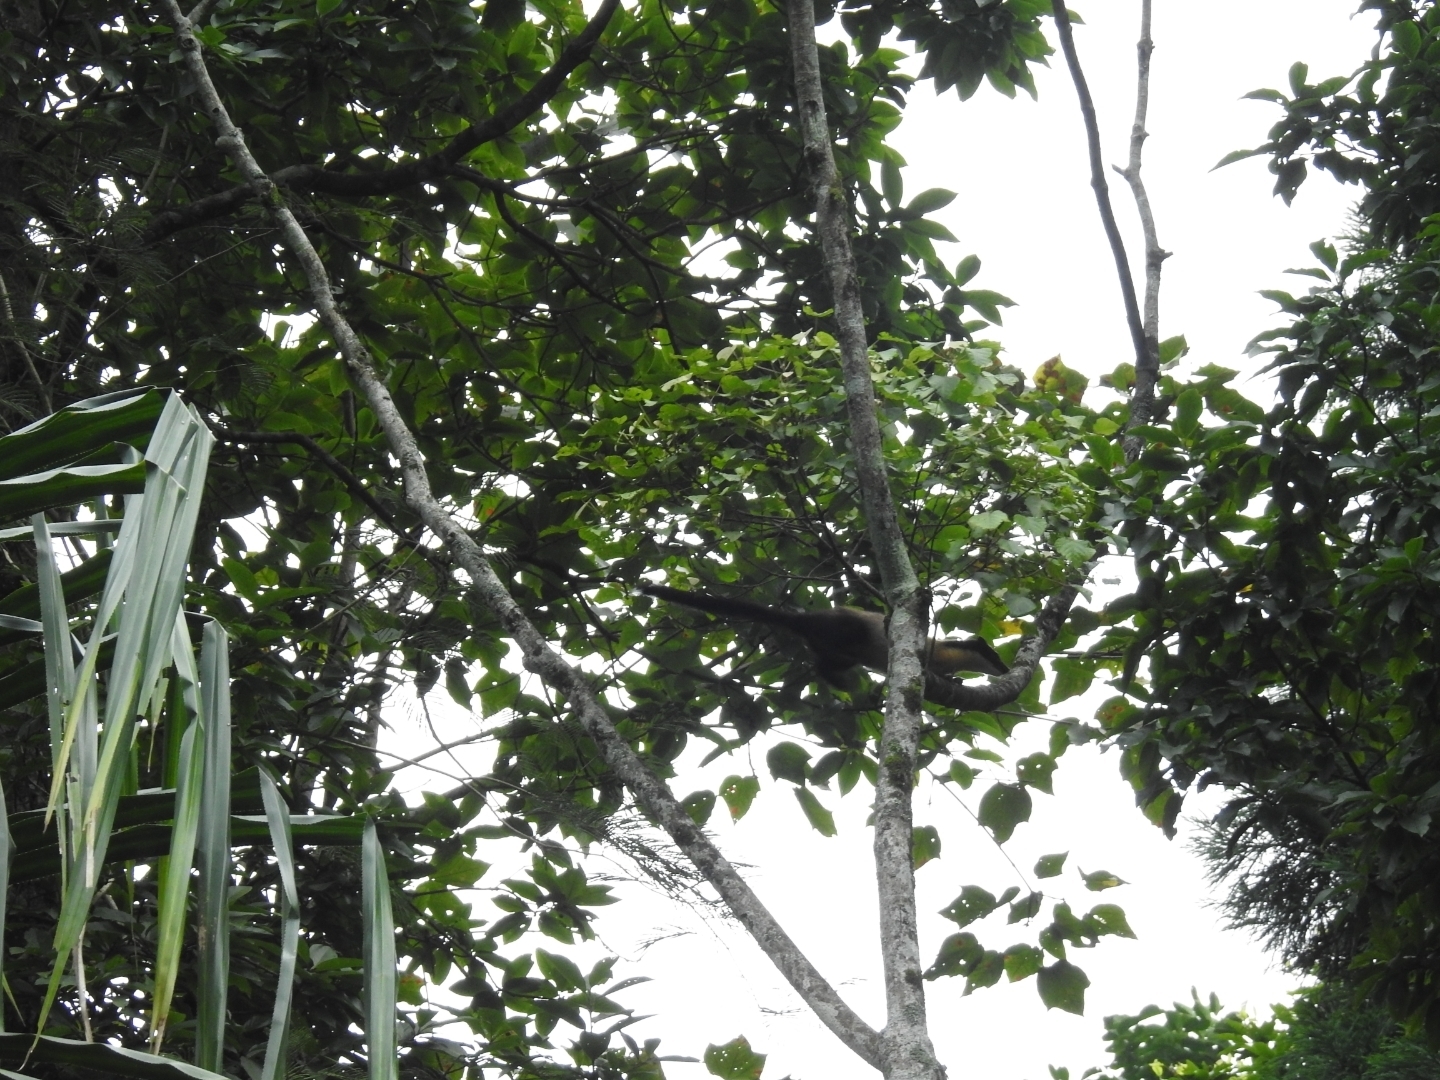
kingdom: Animalia
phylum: Chordata
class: Mammalia
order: Carnivora
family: Mustelidae
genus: Martes
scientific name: Martes flavigula
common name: Yellow-throated marten
